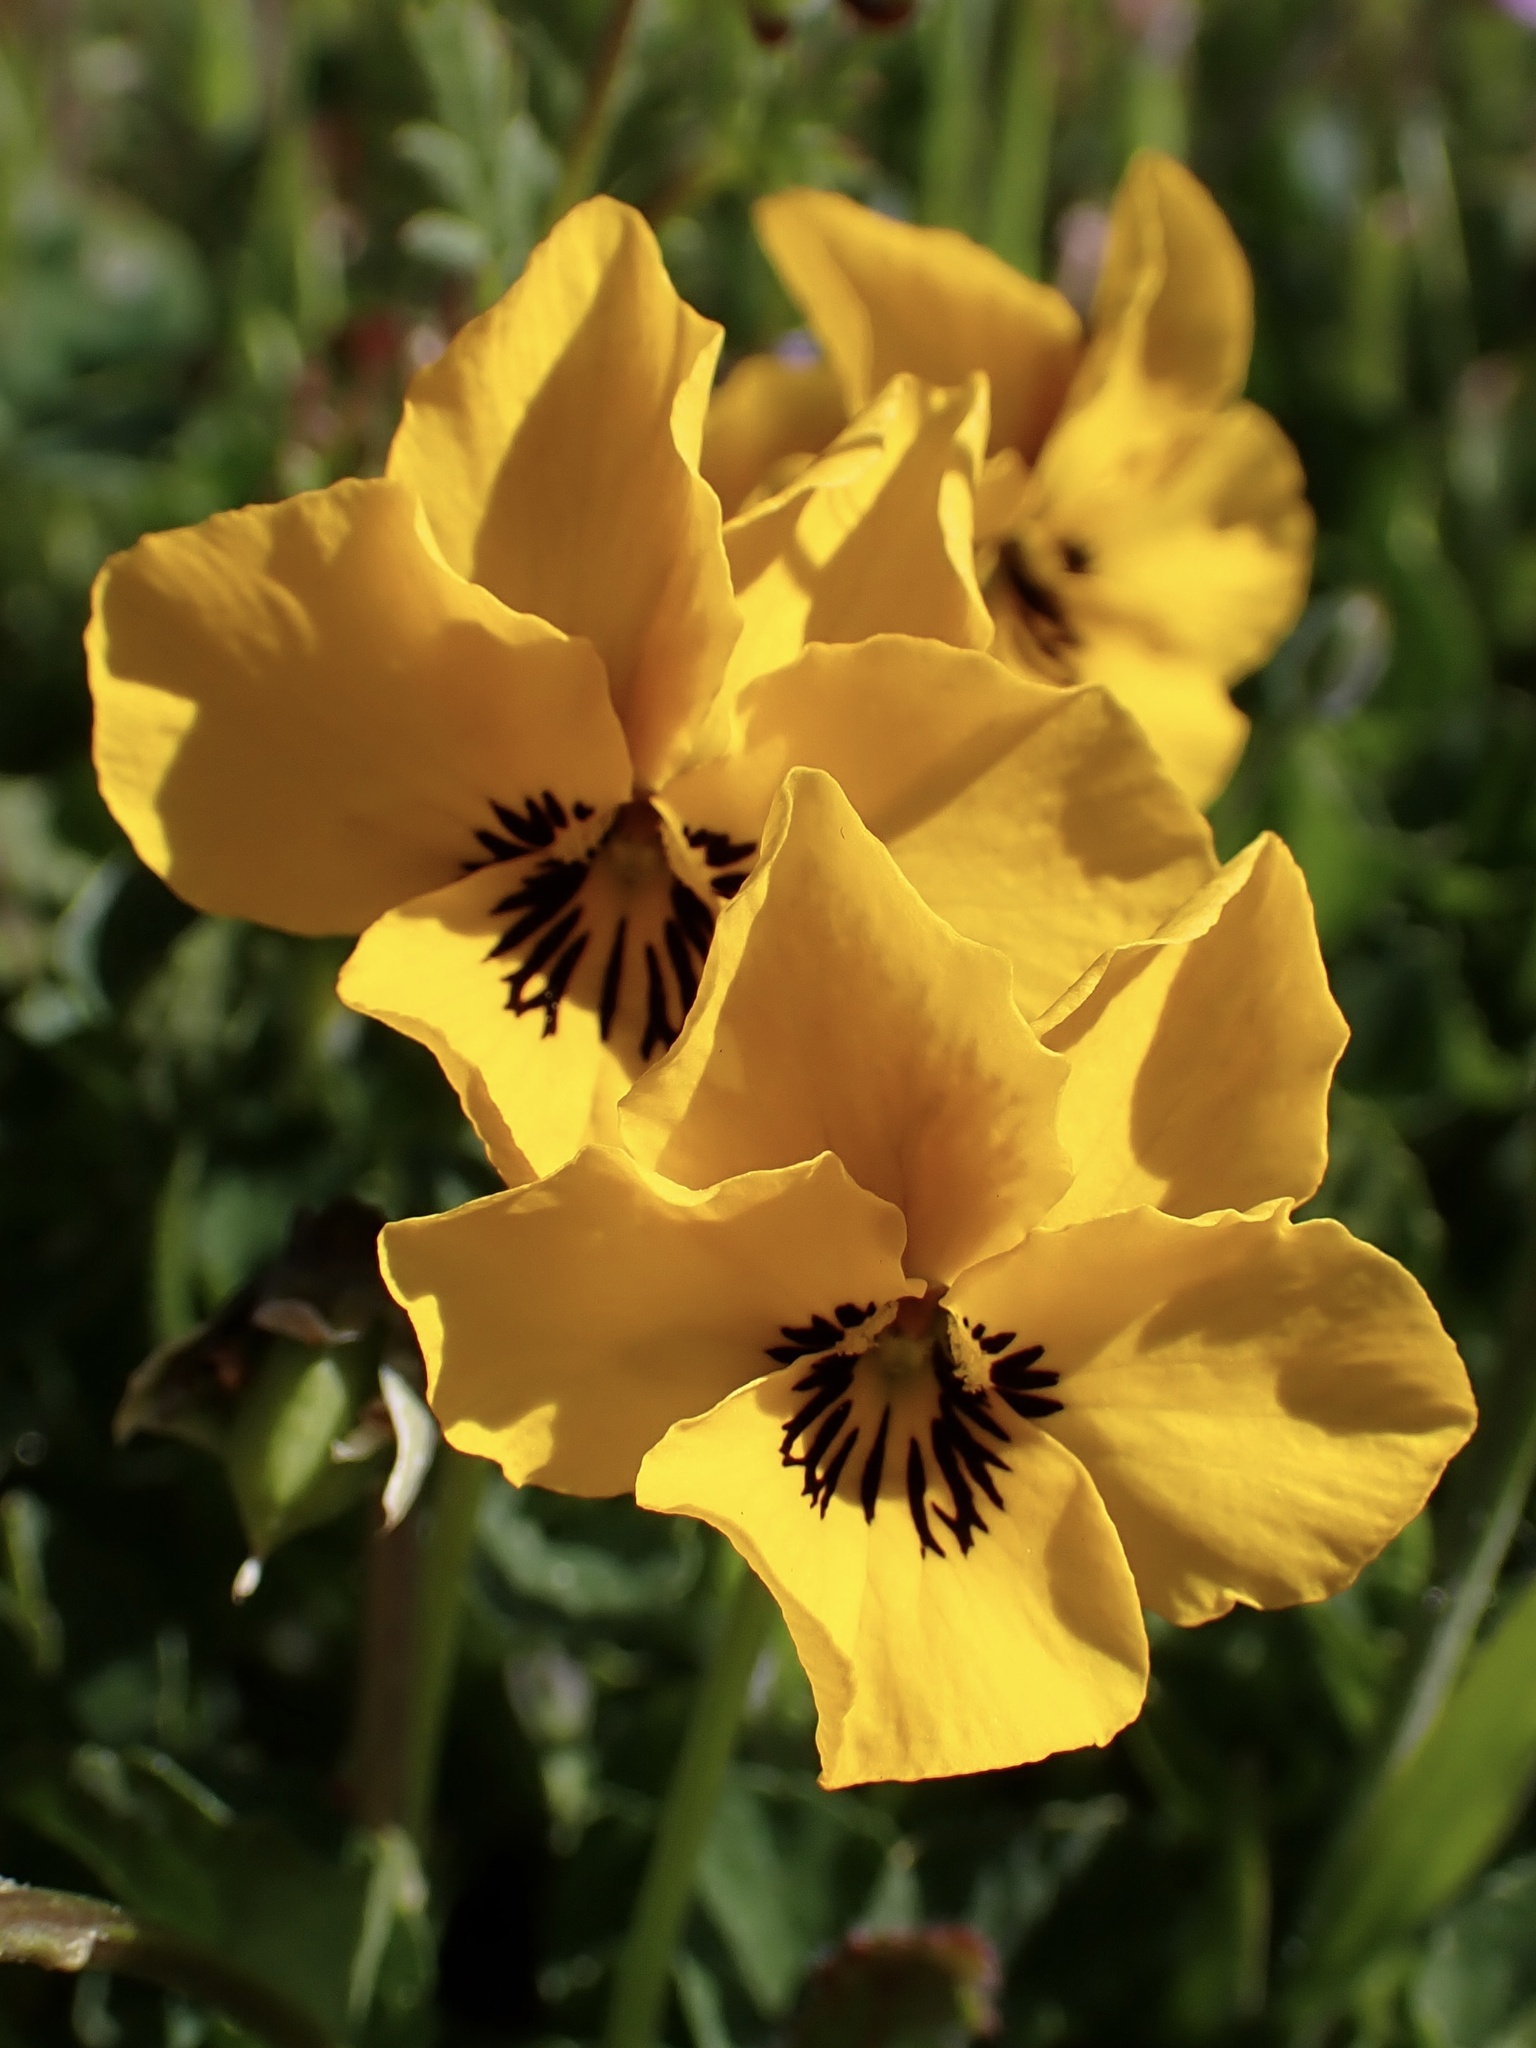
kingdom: Plantae
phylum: Tracheophyta
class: Magnoliopsida
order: Malpighiales
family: Violaceae
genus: Viola
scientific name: Viola pedunculata
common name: California golden violet
